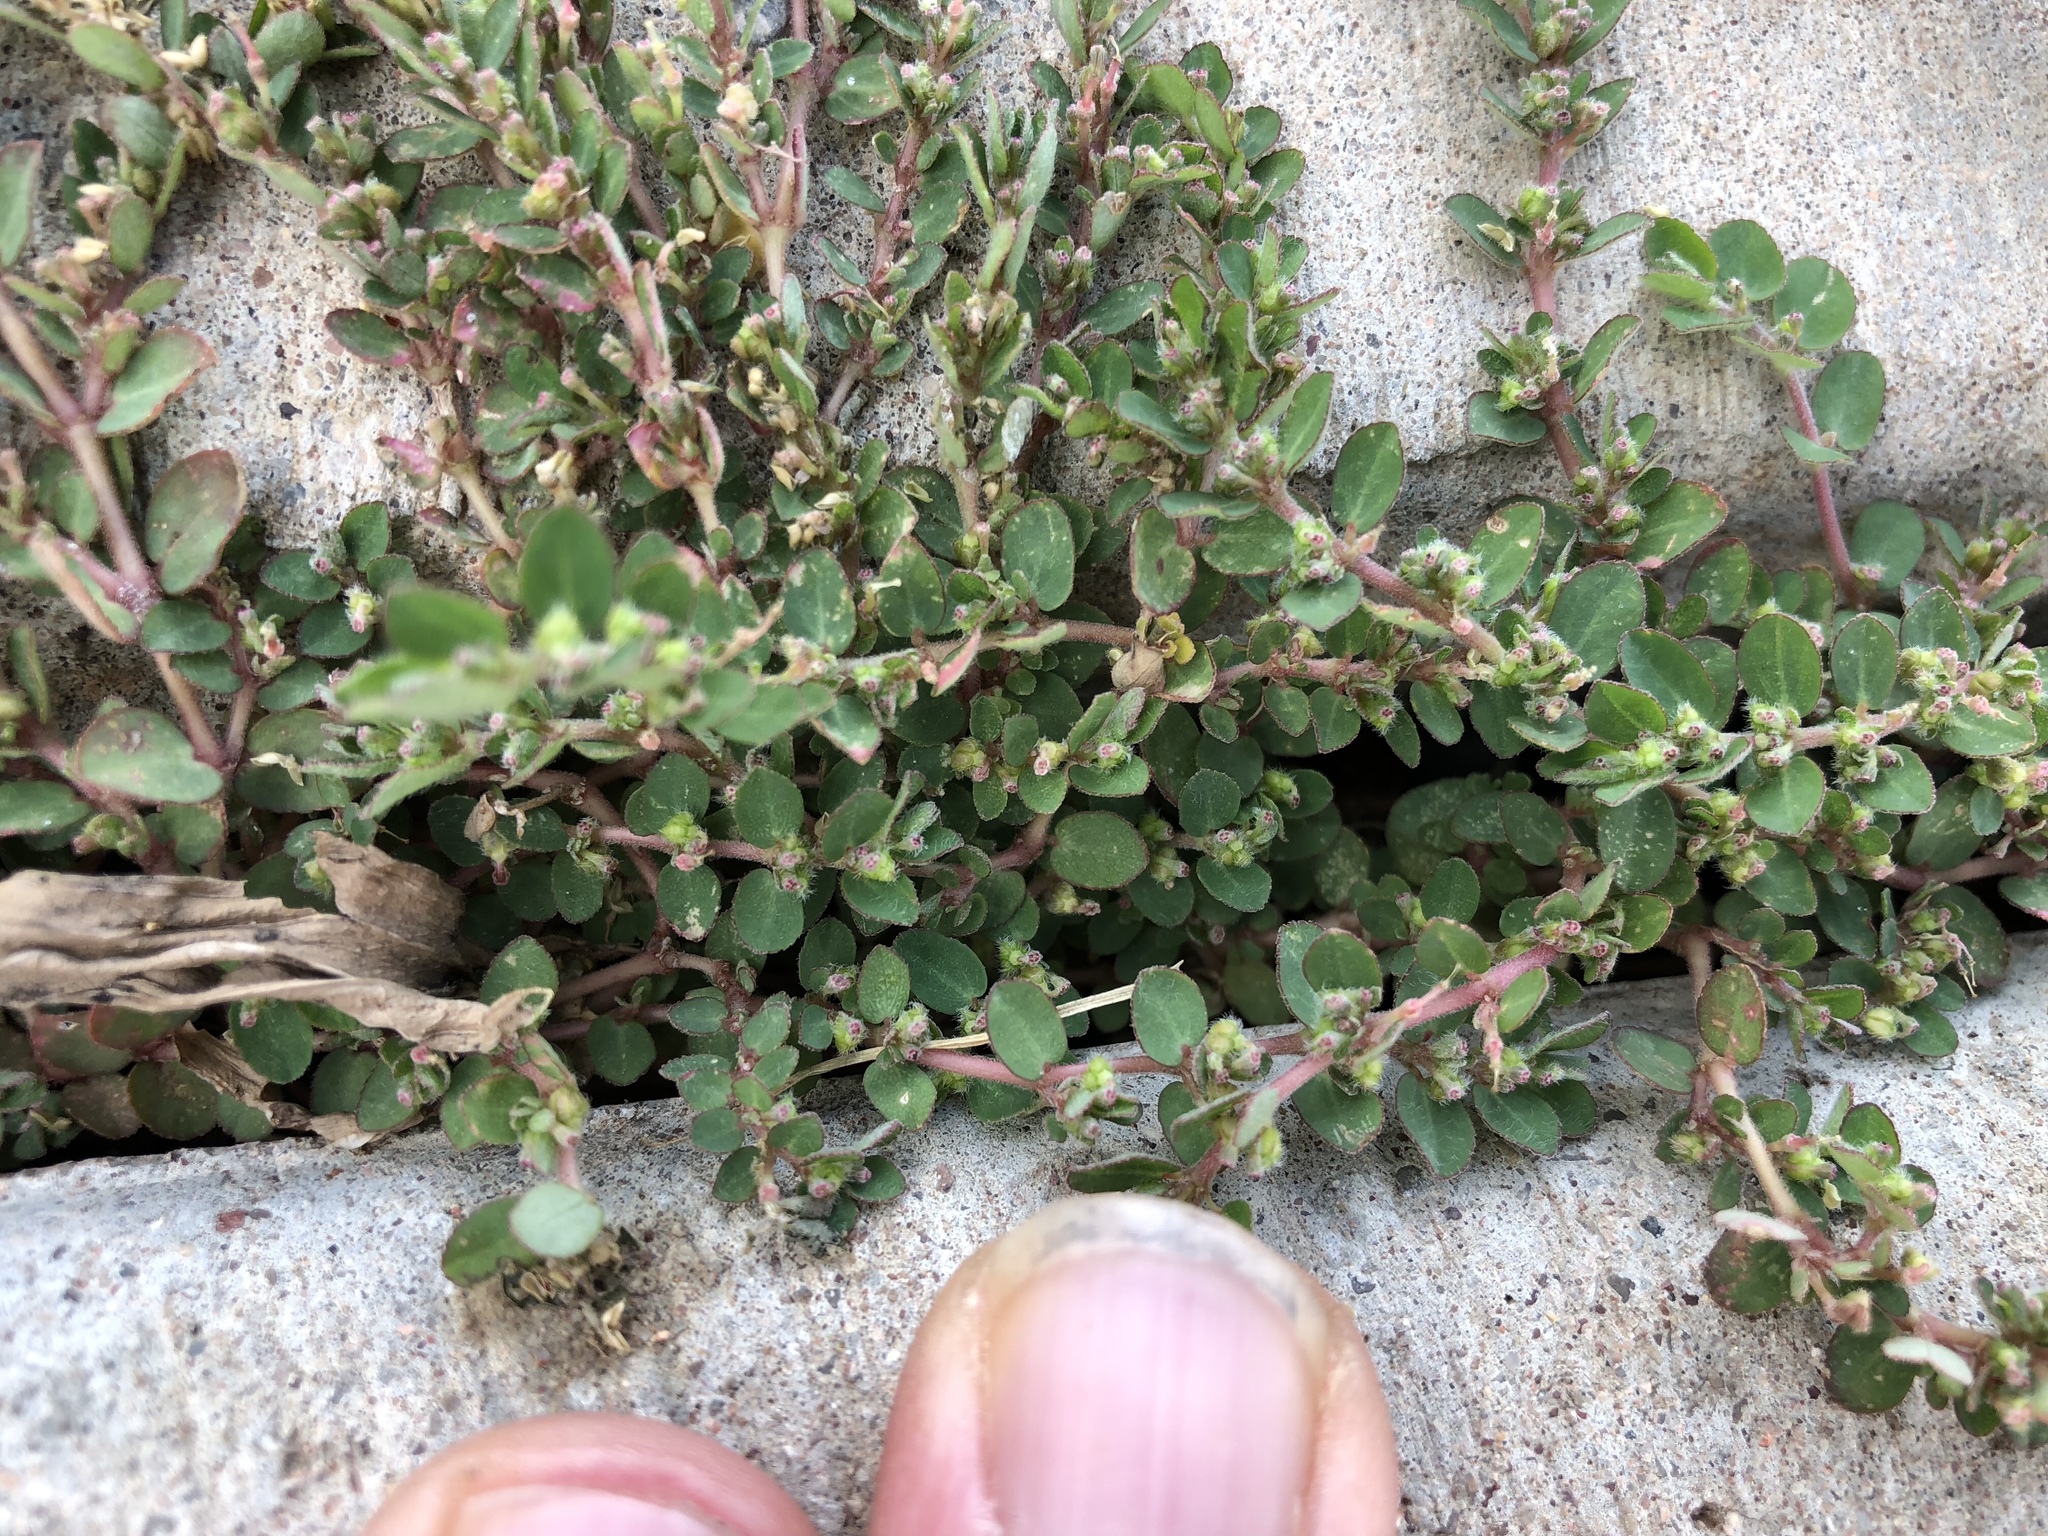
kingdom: Plantae
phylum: Tracheophyta
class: Magnoliopsida
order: Malpighiales
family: Euphorbiaceae
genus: Euphorbia
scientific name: Euphorbia prostrata
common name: Prostrate sandmat
